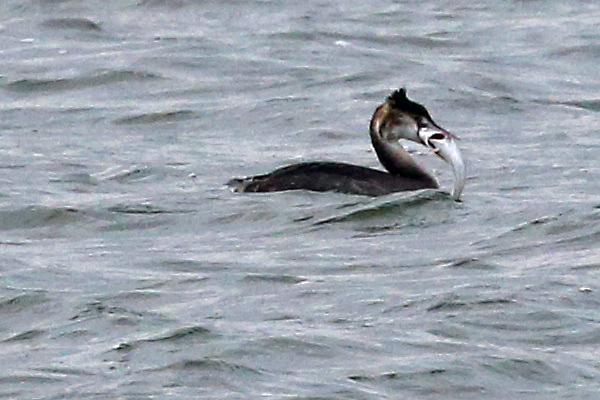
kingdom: Animalia
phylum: Chordata
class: Aves
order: Podicipediformes
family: Podicipedidae
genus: Podiceps
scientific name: Podiceps cristatus
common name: Great crested grebe
